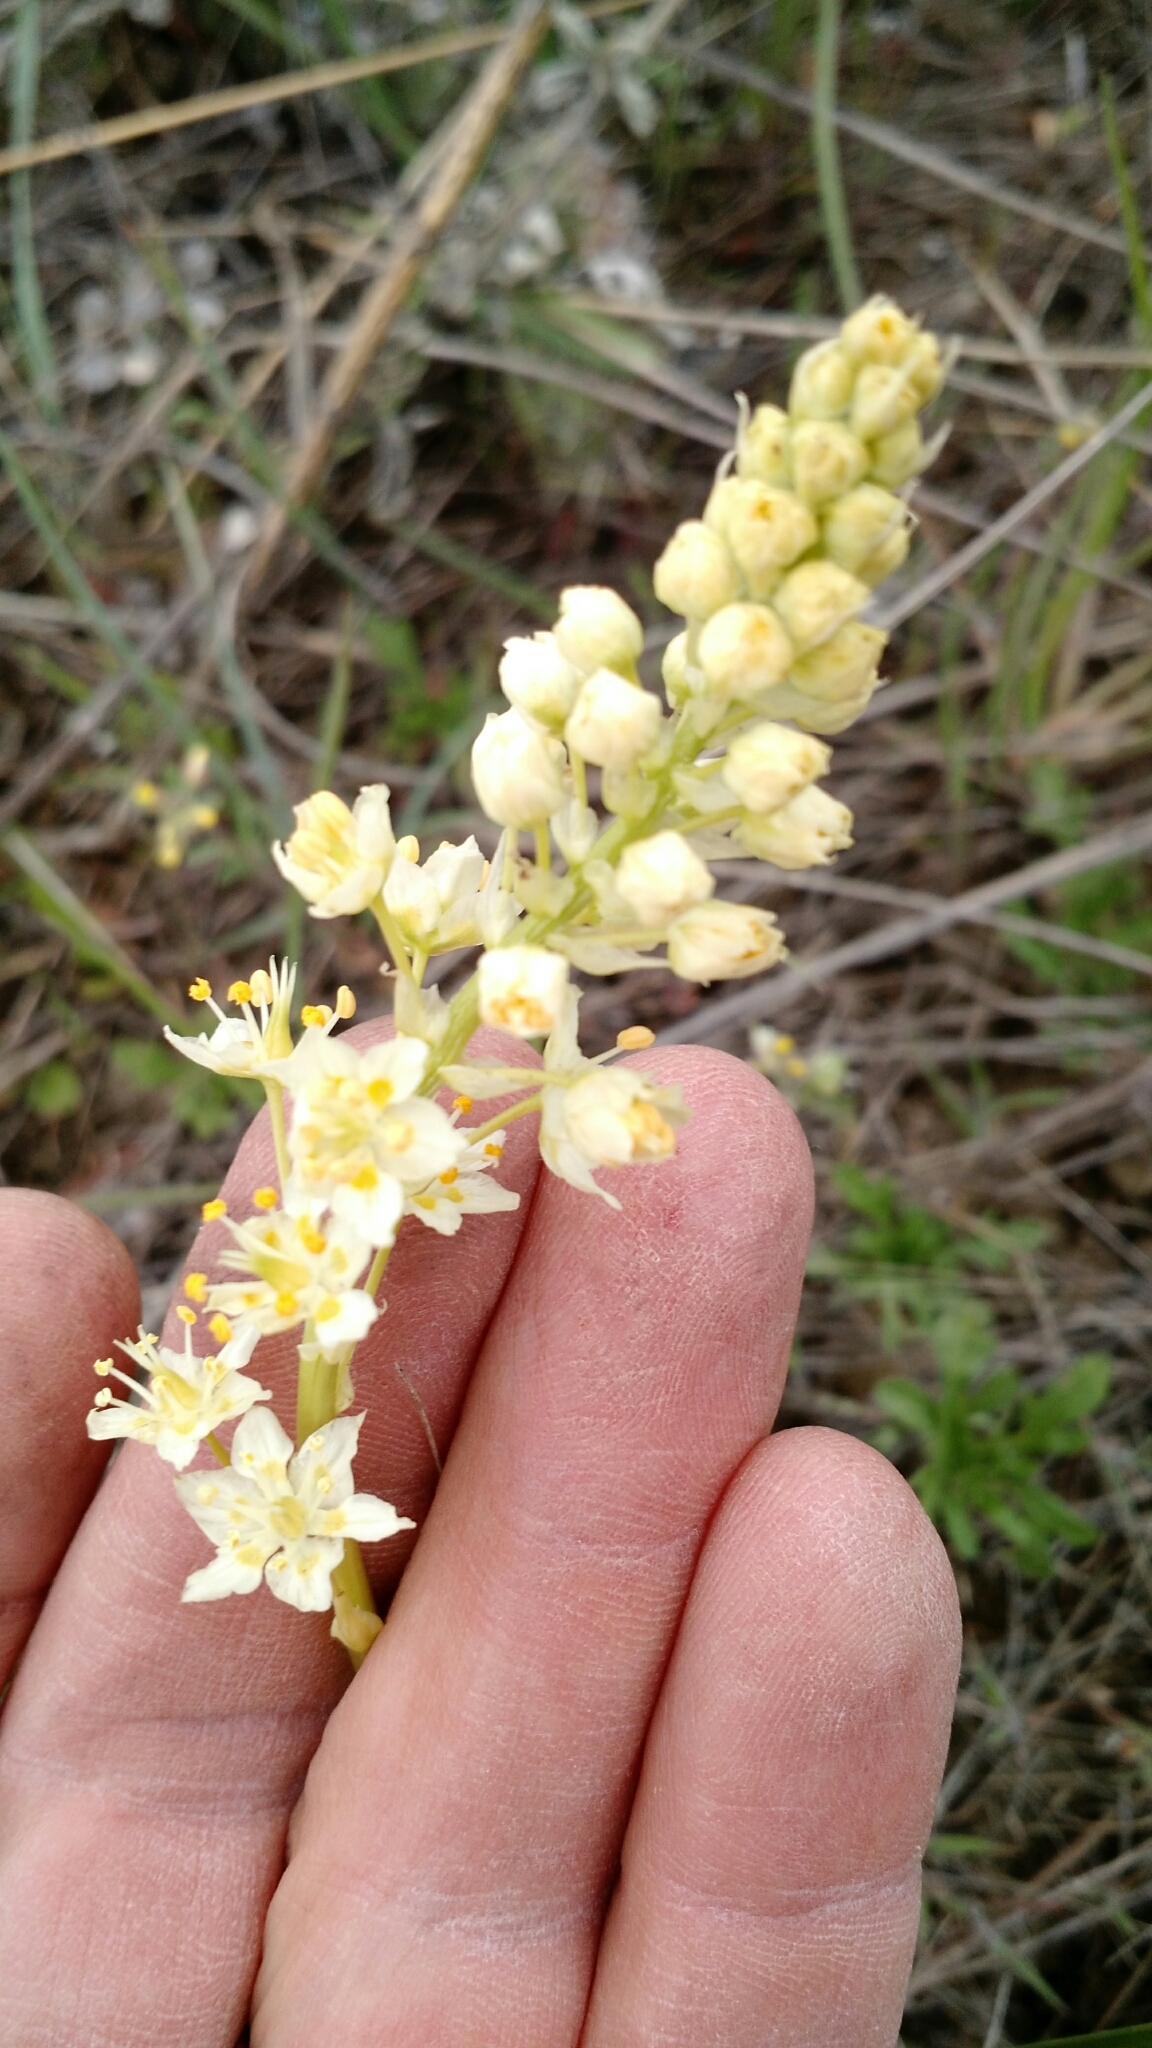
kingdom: Plantae
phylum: Tracheophyta
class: Liliopsida
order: Liliales
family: Melanthiaceae
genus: Toxicoscordion
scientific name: Toxicoscordion venenosum
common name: Meadow death camas
